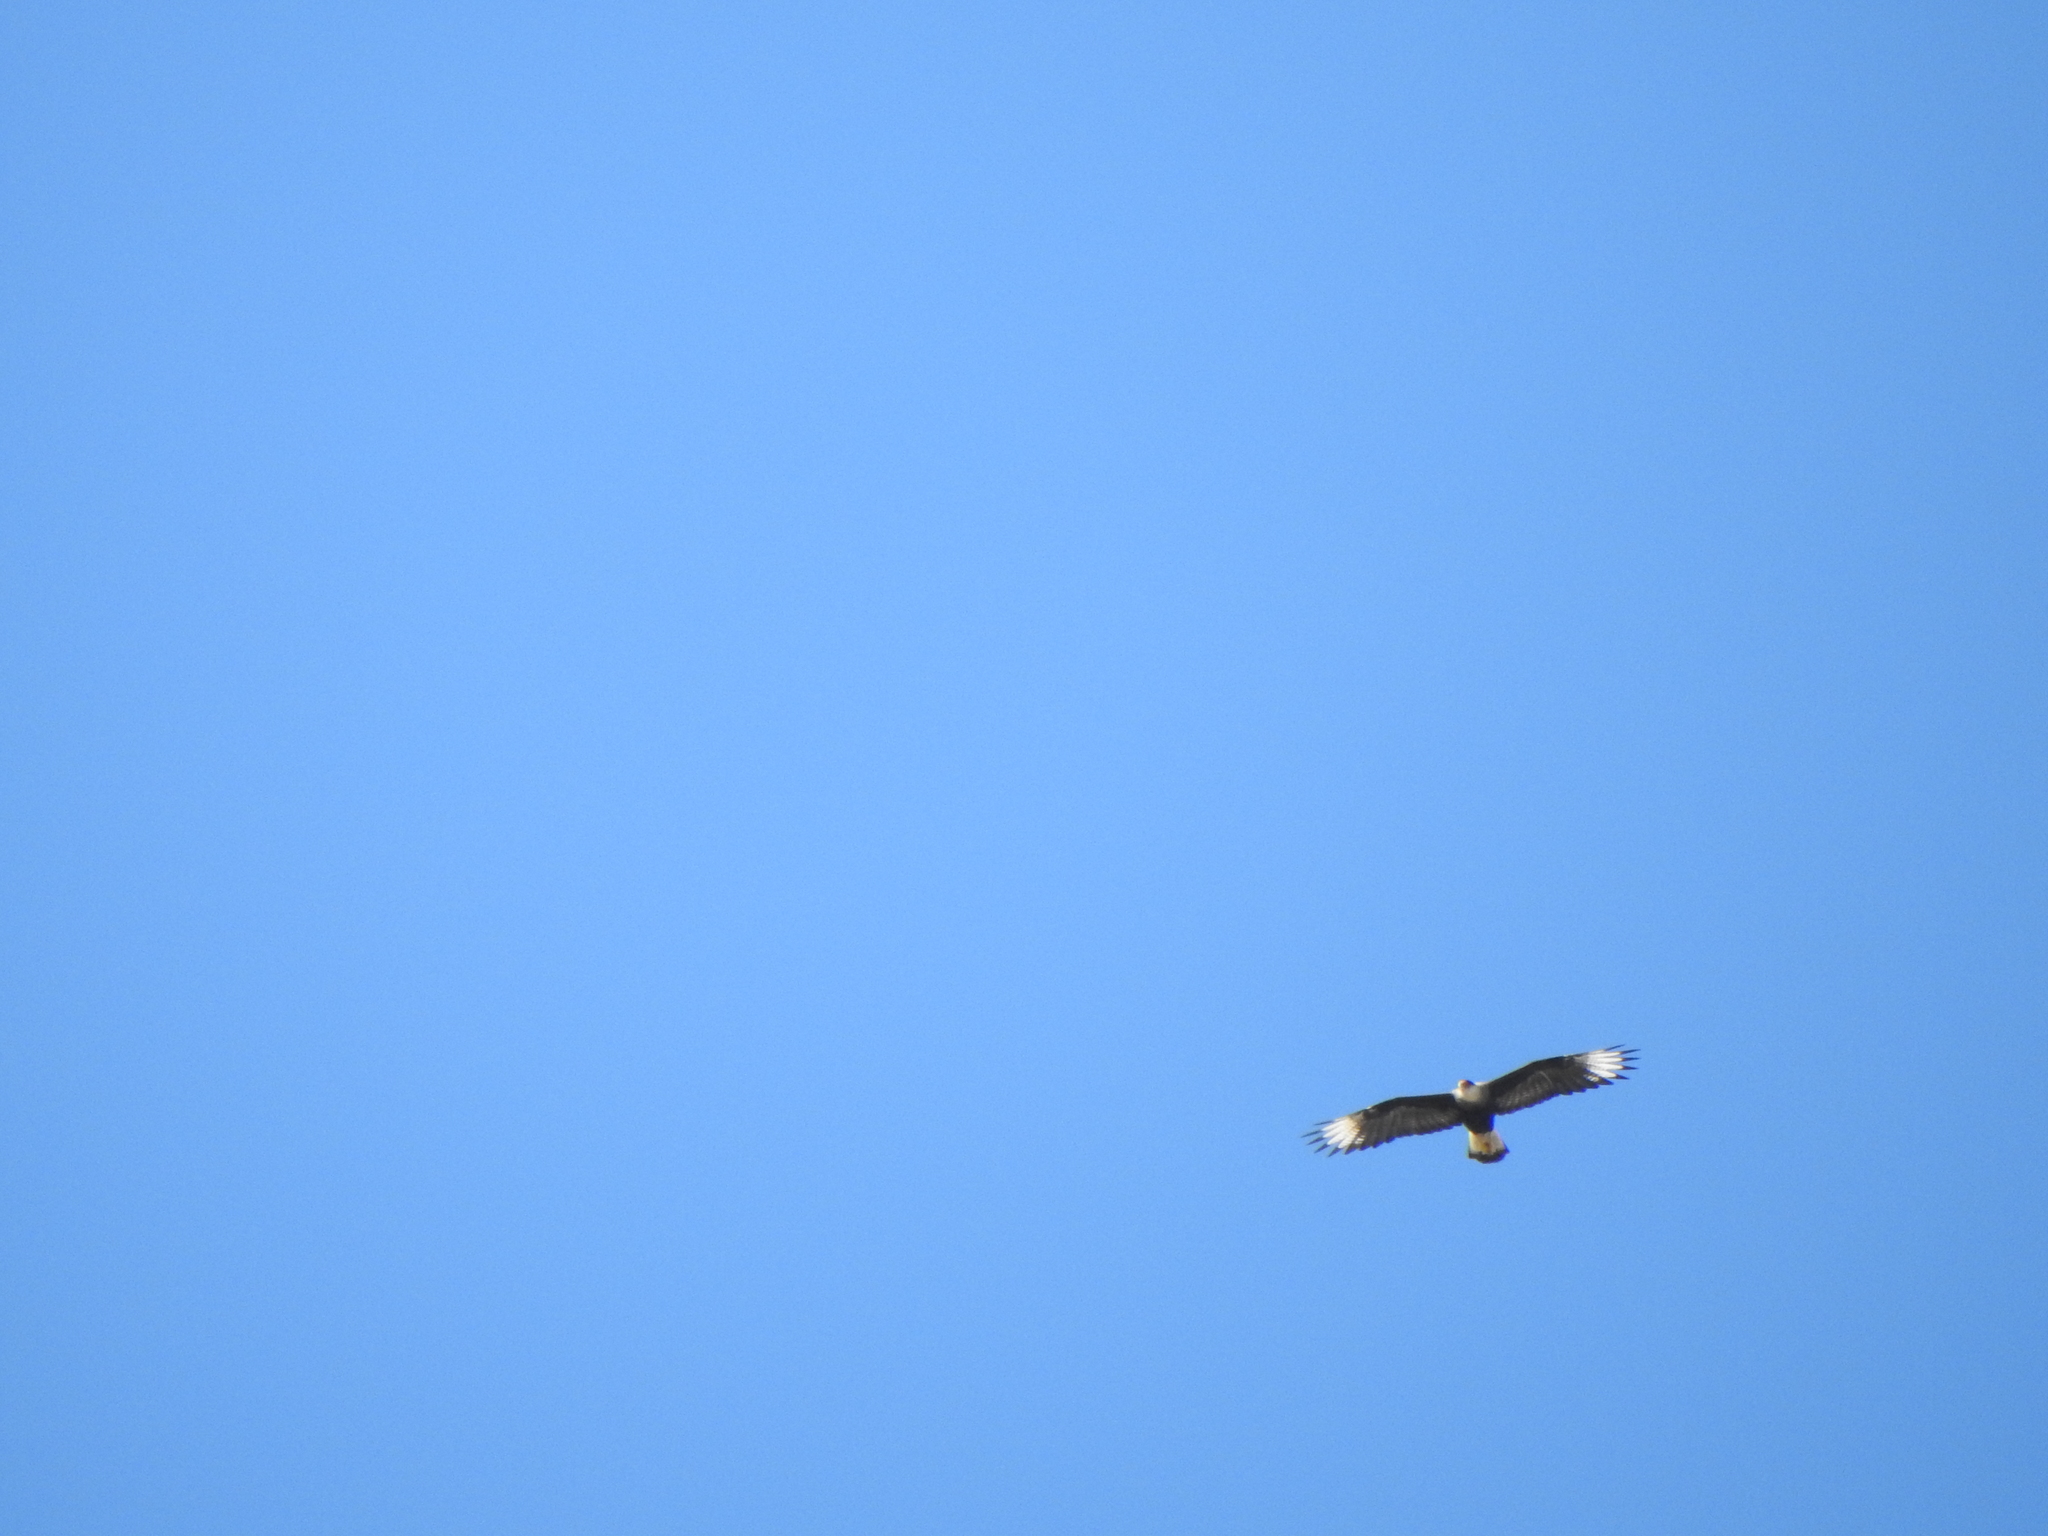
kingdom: Animalia
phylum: Chordata
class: Aves
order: Falconiformes
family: Falconidae
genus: Caracara
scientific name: Caracara plancus
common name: Southern caracara
